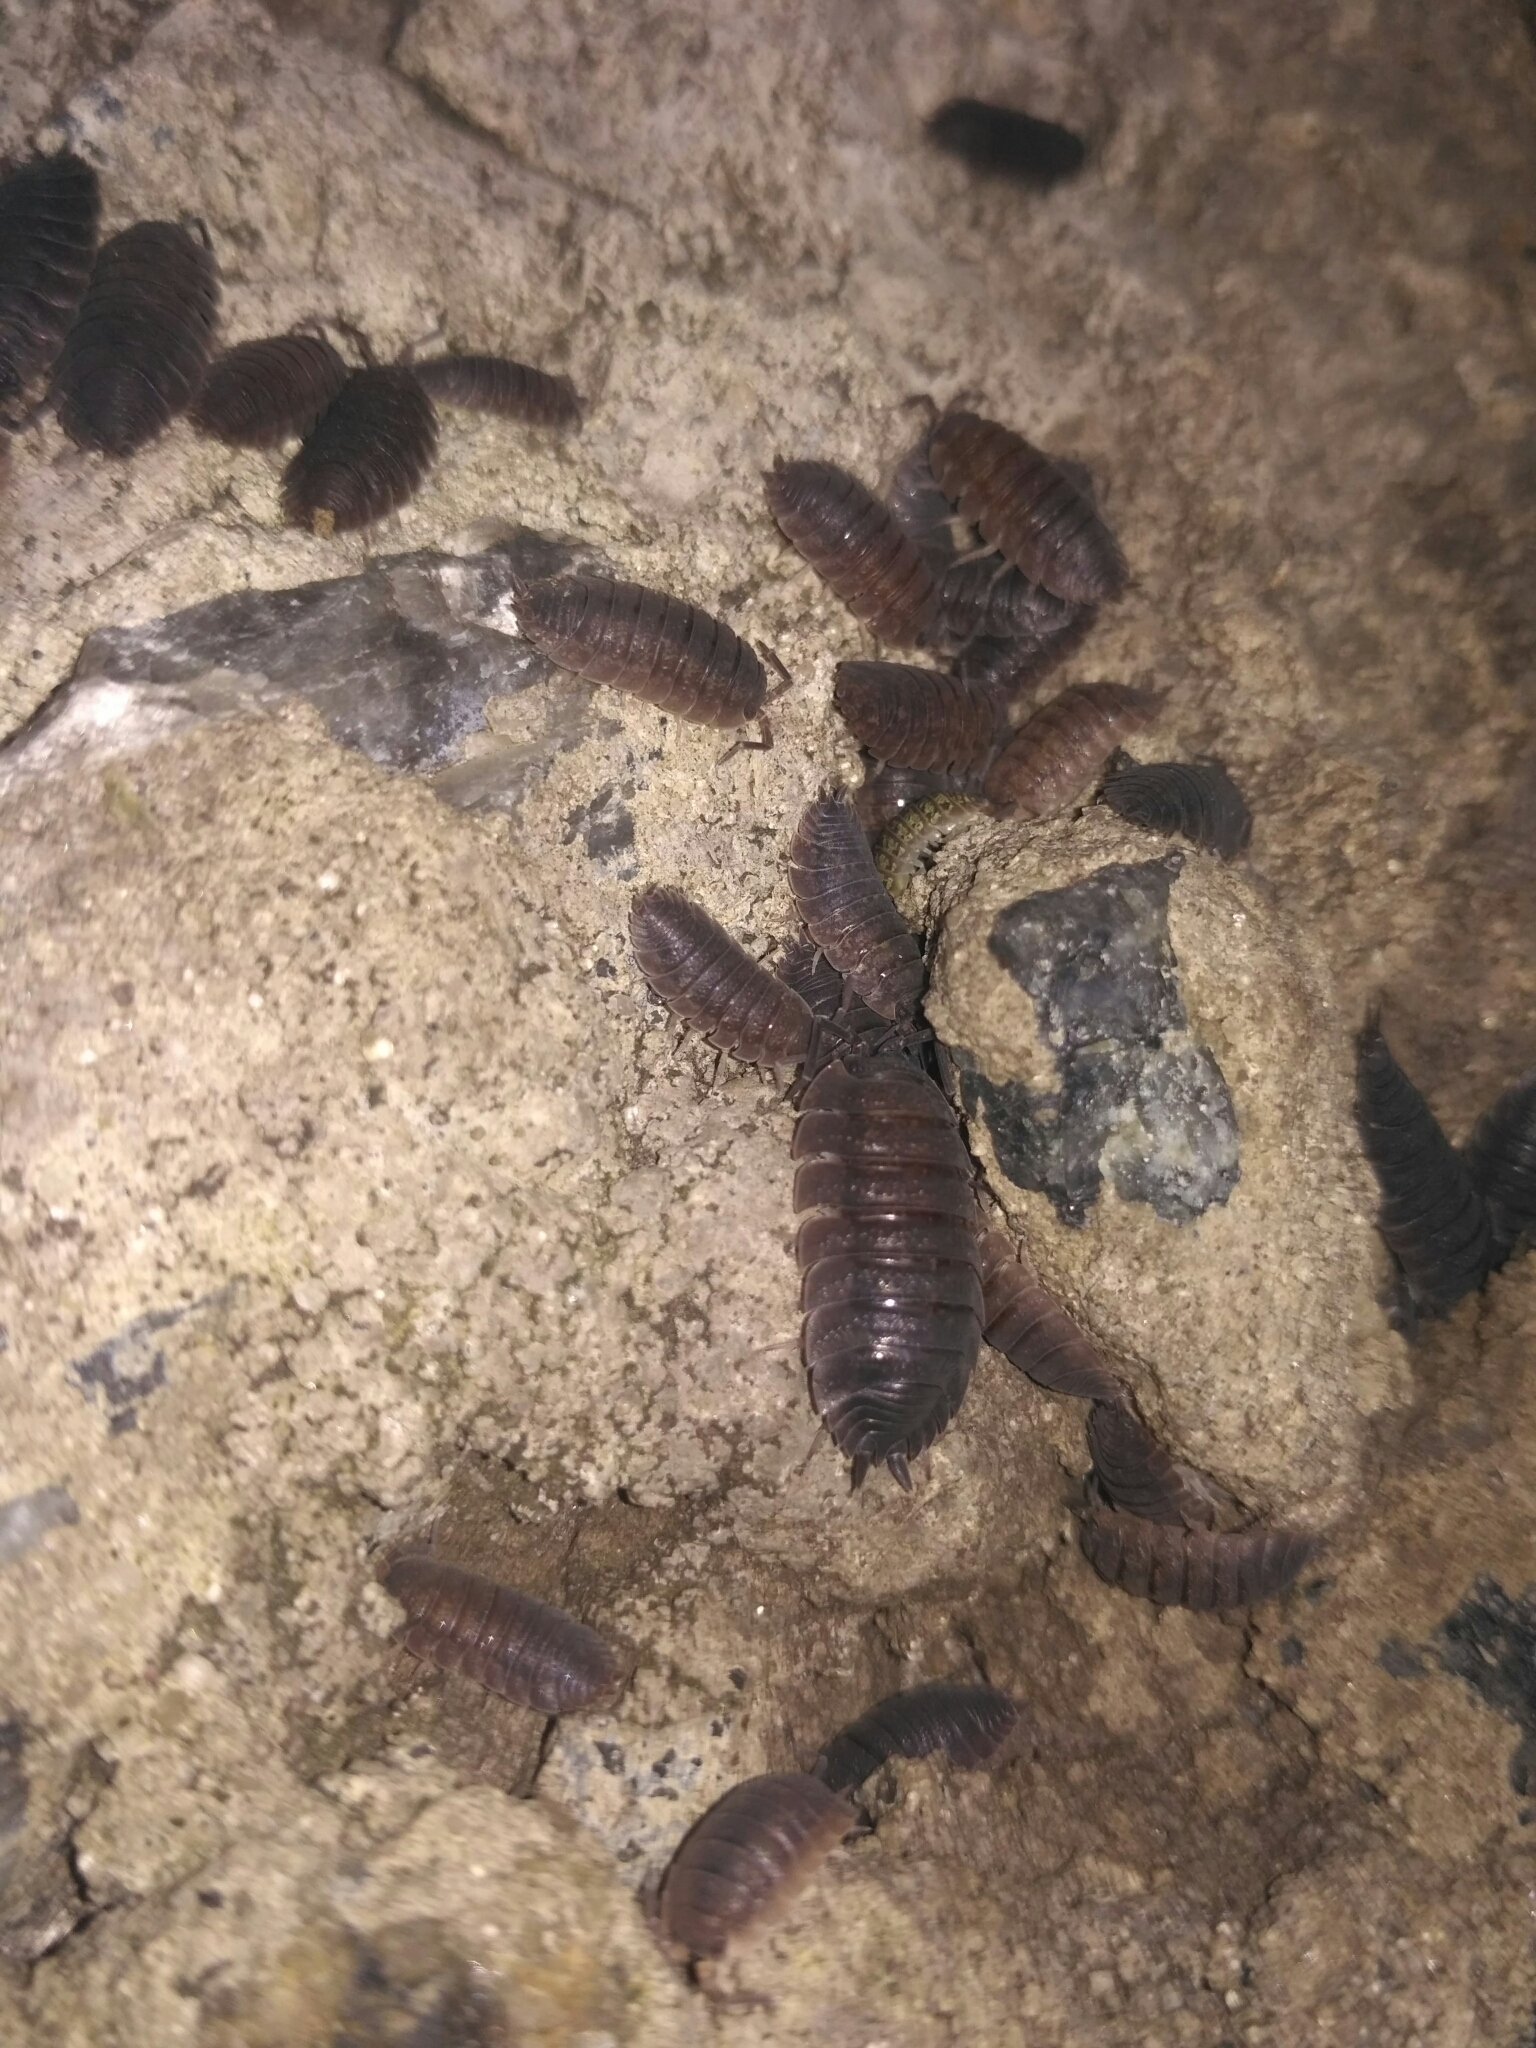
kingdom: Animalia
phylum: Arthropoda
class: Malacostraca
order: Isopoda
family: Porcellionidae
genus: Porcellio
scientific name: Porcellio scaber
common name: Common rough woodlouse
